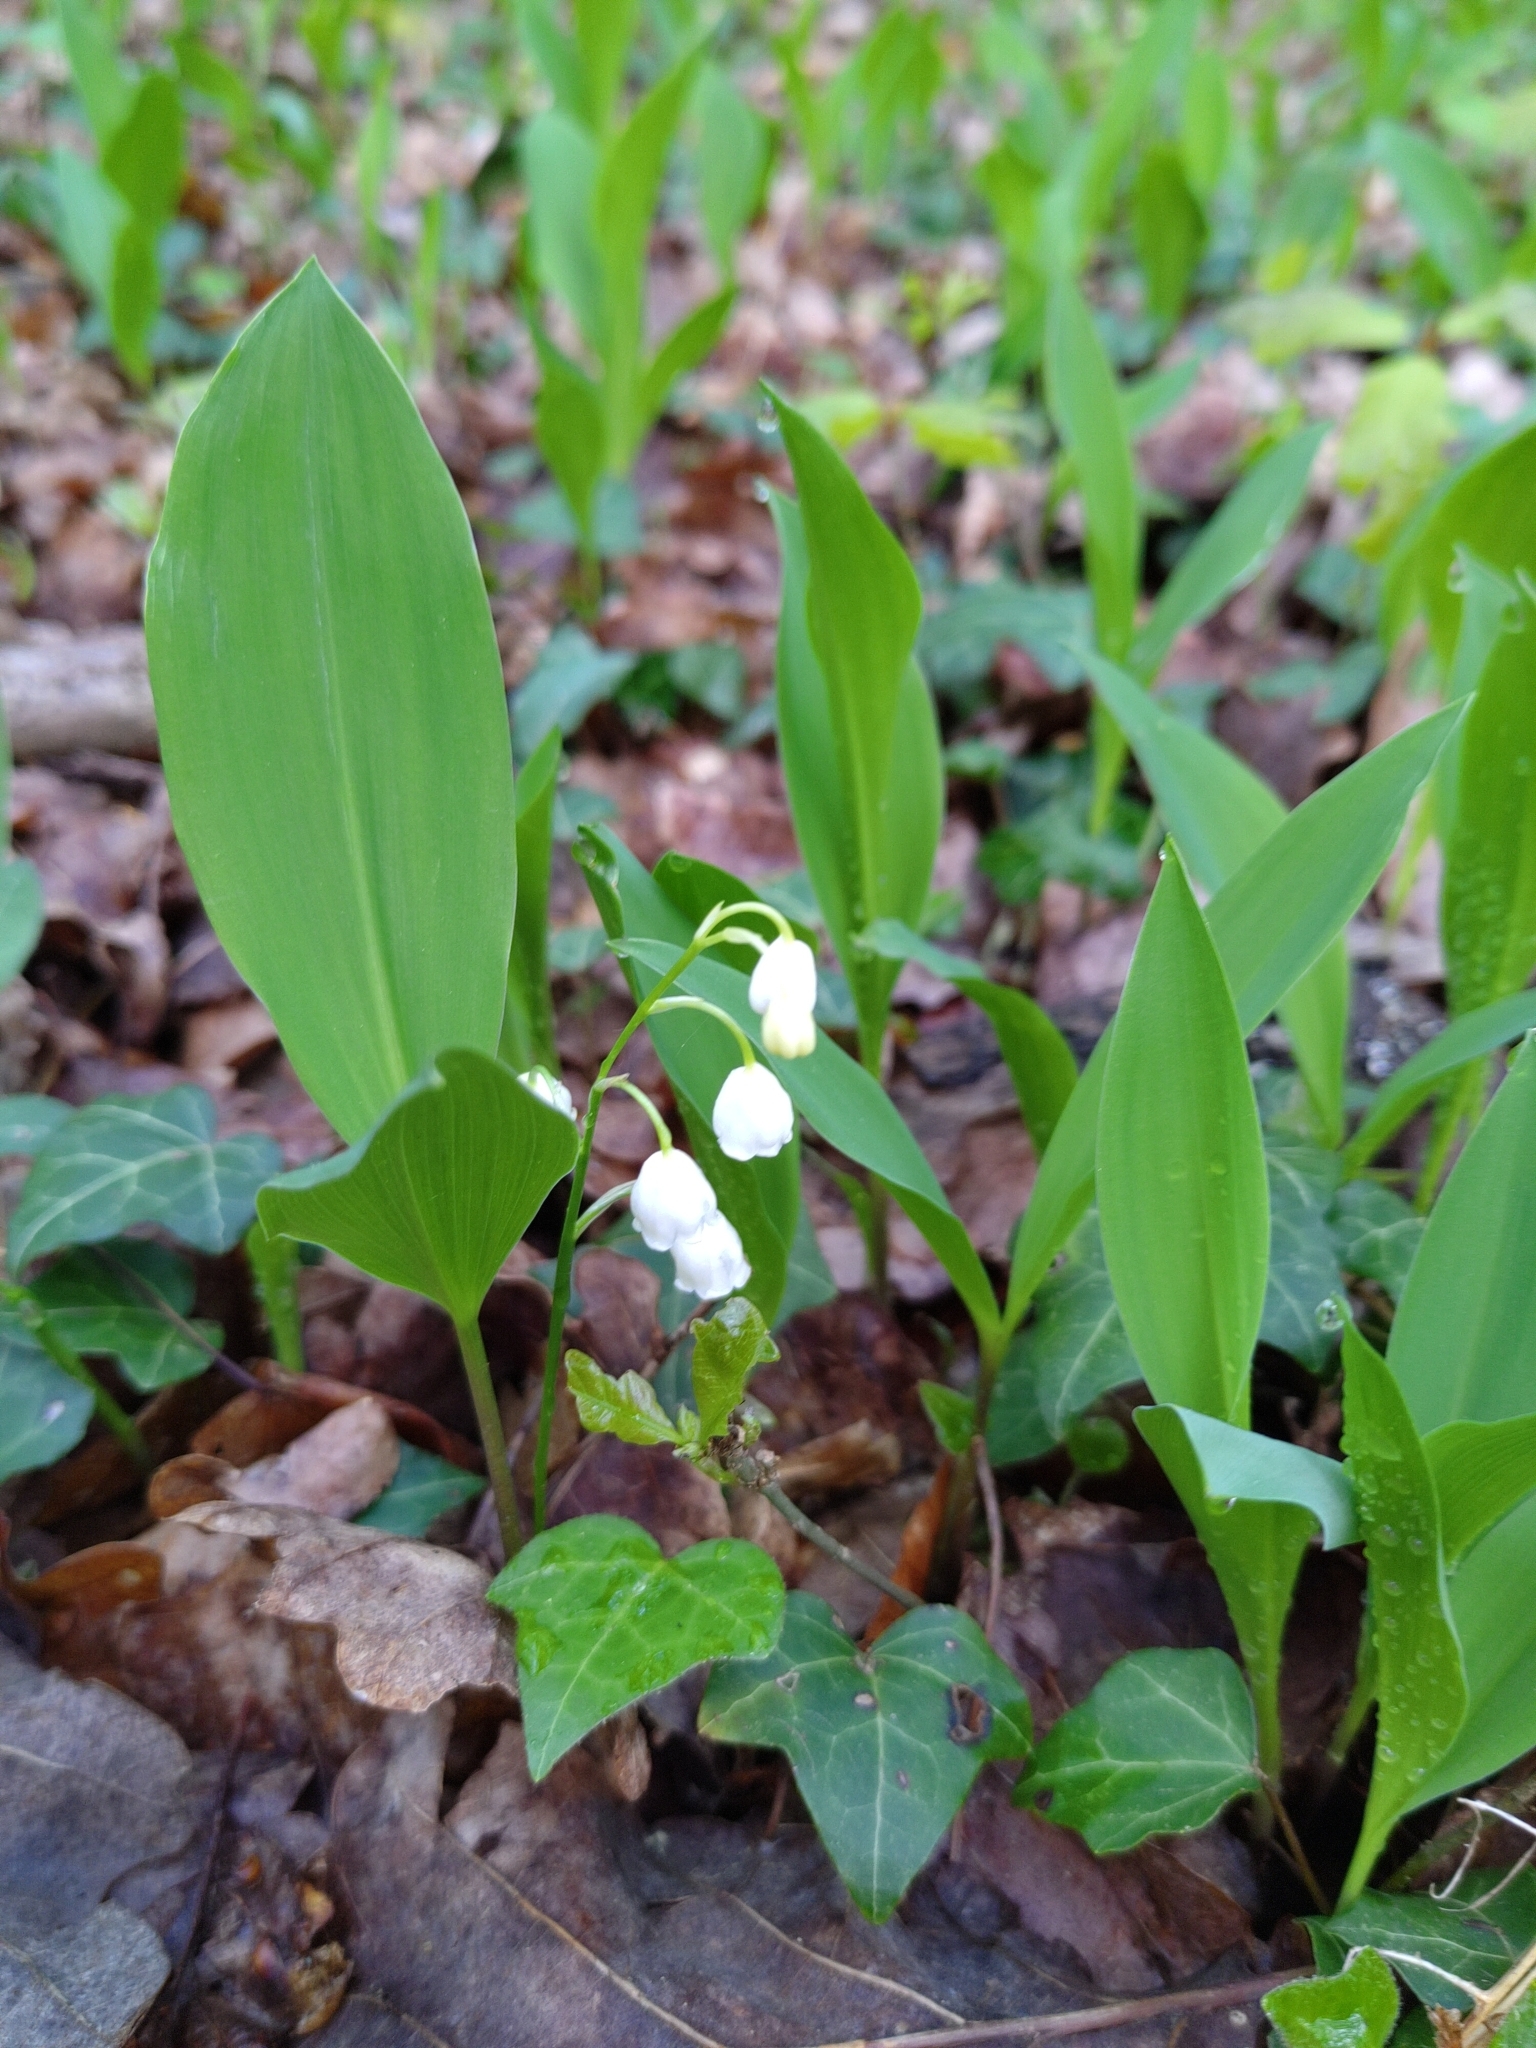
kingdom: Plantae
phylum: Tracheophyta
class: Liliopsida
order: Asparagales
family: Asparagaceae
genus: Convallaria
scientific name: Convallaria majalis
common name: Lily-of-the-valley
